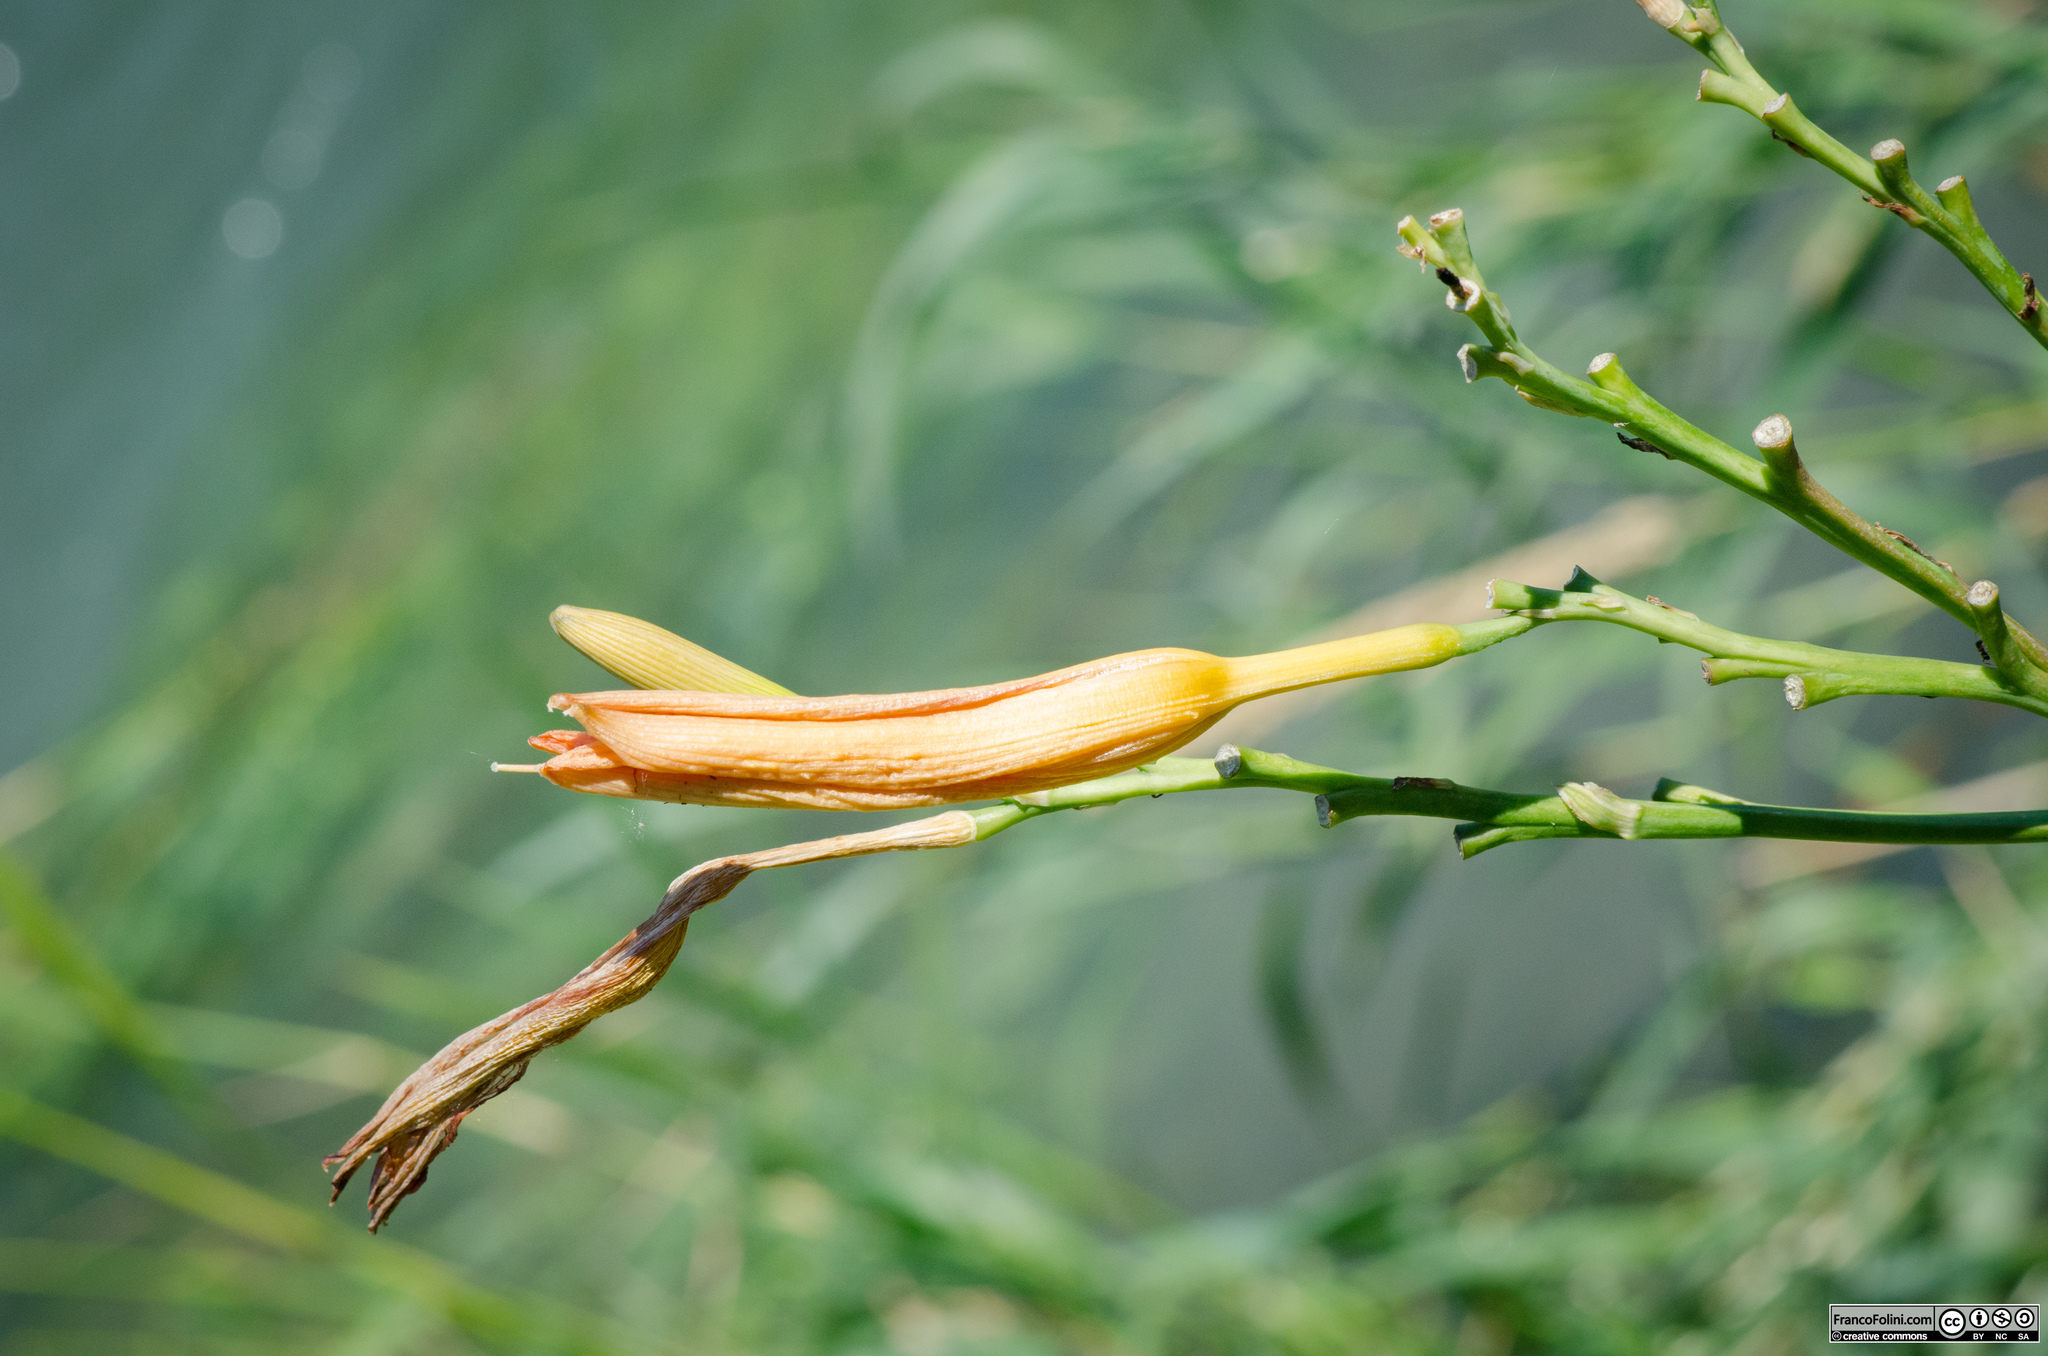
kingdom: Plantae
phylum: Tracheophyta
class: Liliopsida
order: Asparagales
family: Asphodelaceae
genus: Hemerocallis
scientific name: Hemerocallis fulva
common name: Orange day-lily
